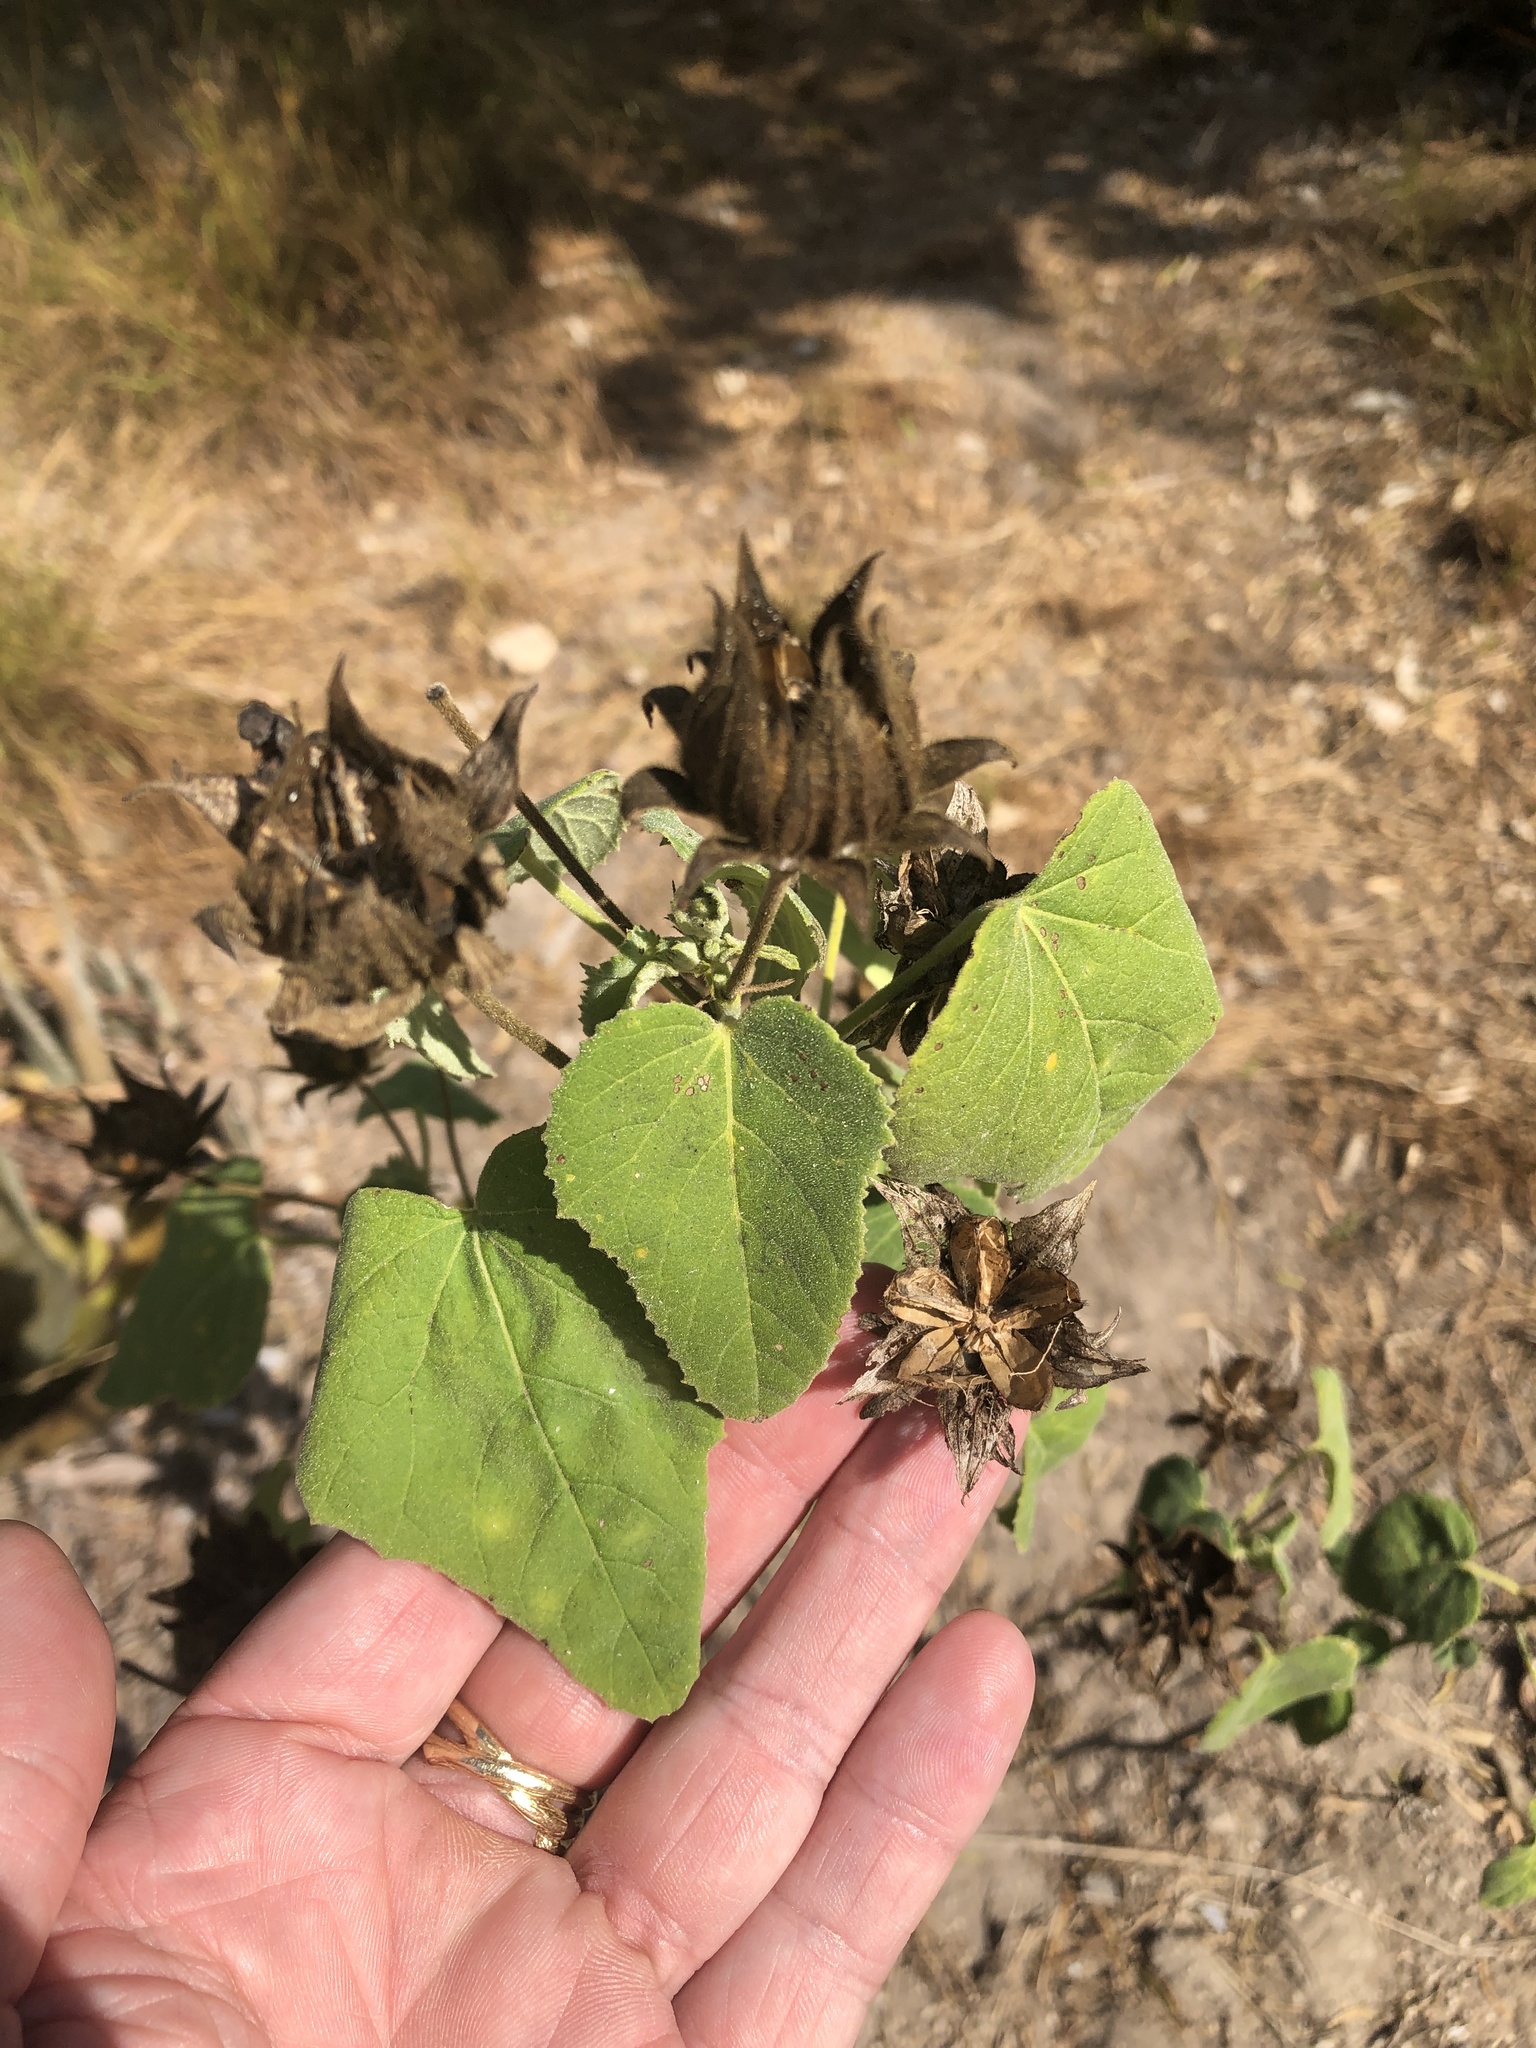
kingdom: Plantae
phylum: Tracheophyta
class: Magnoliopsida
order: Malvales
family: Malvaceae
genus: Hibiscus
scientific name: Hibiscus martianus
